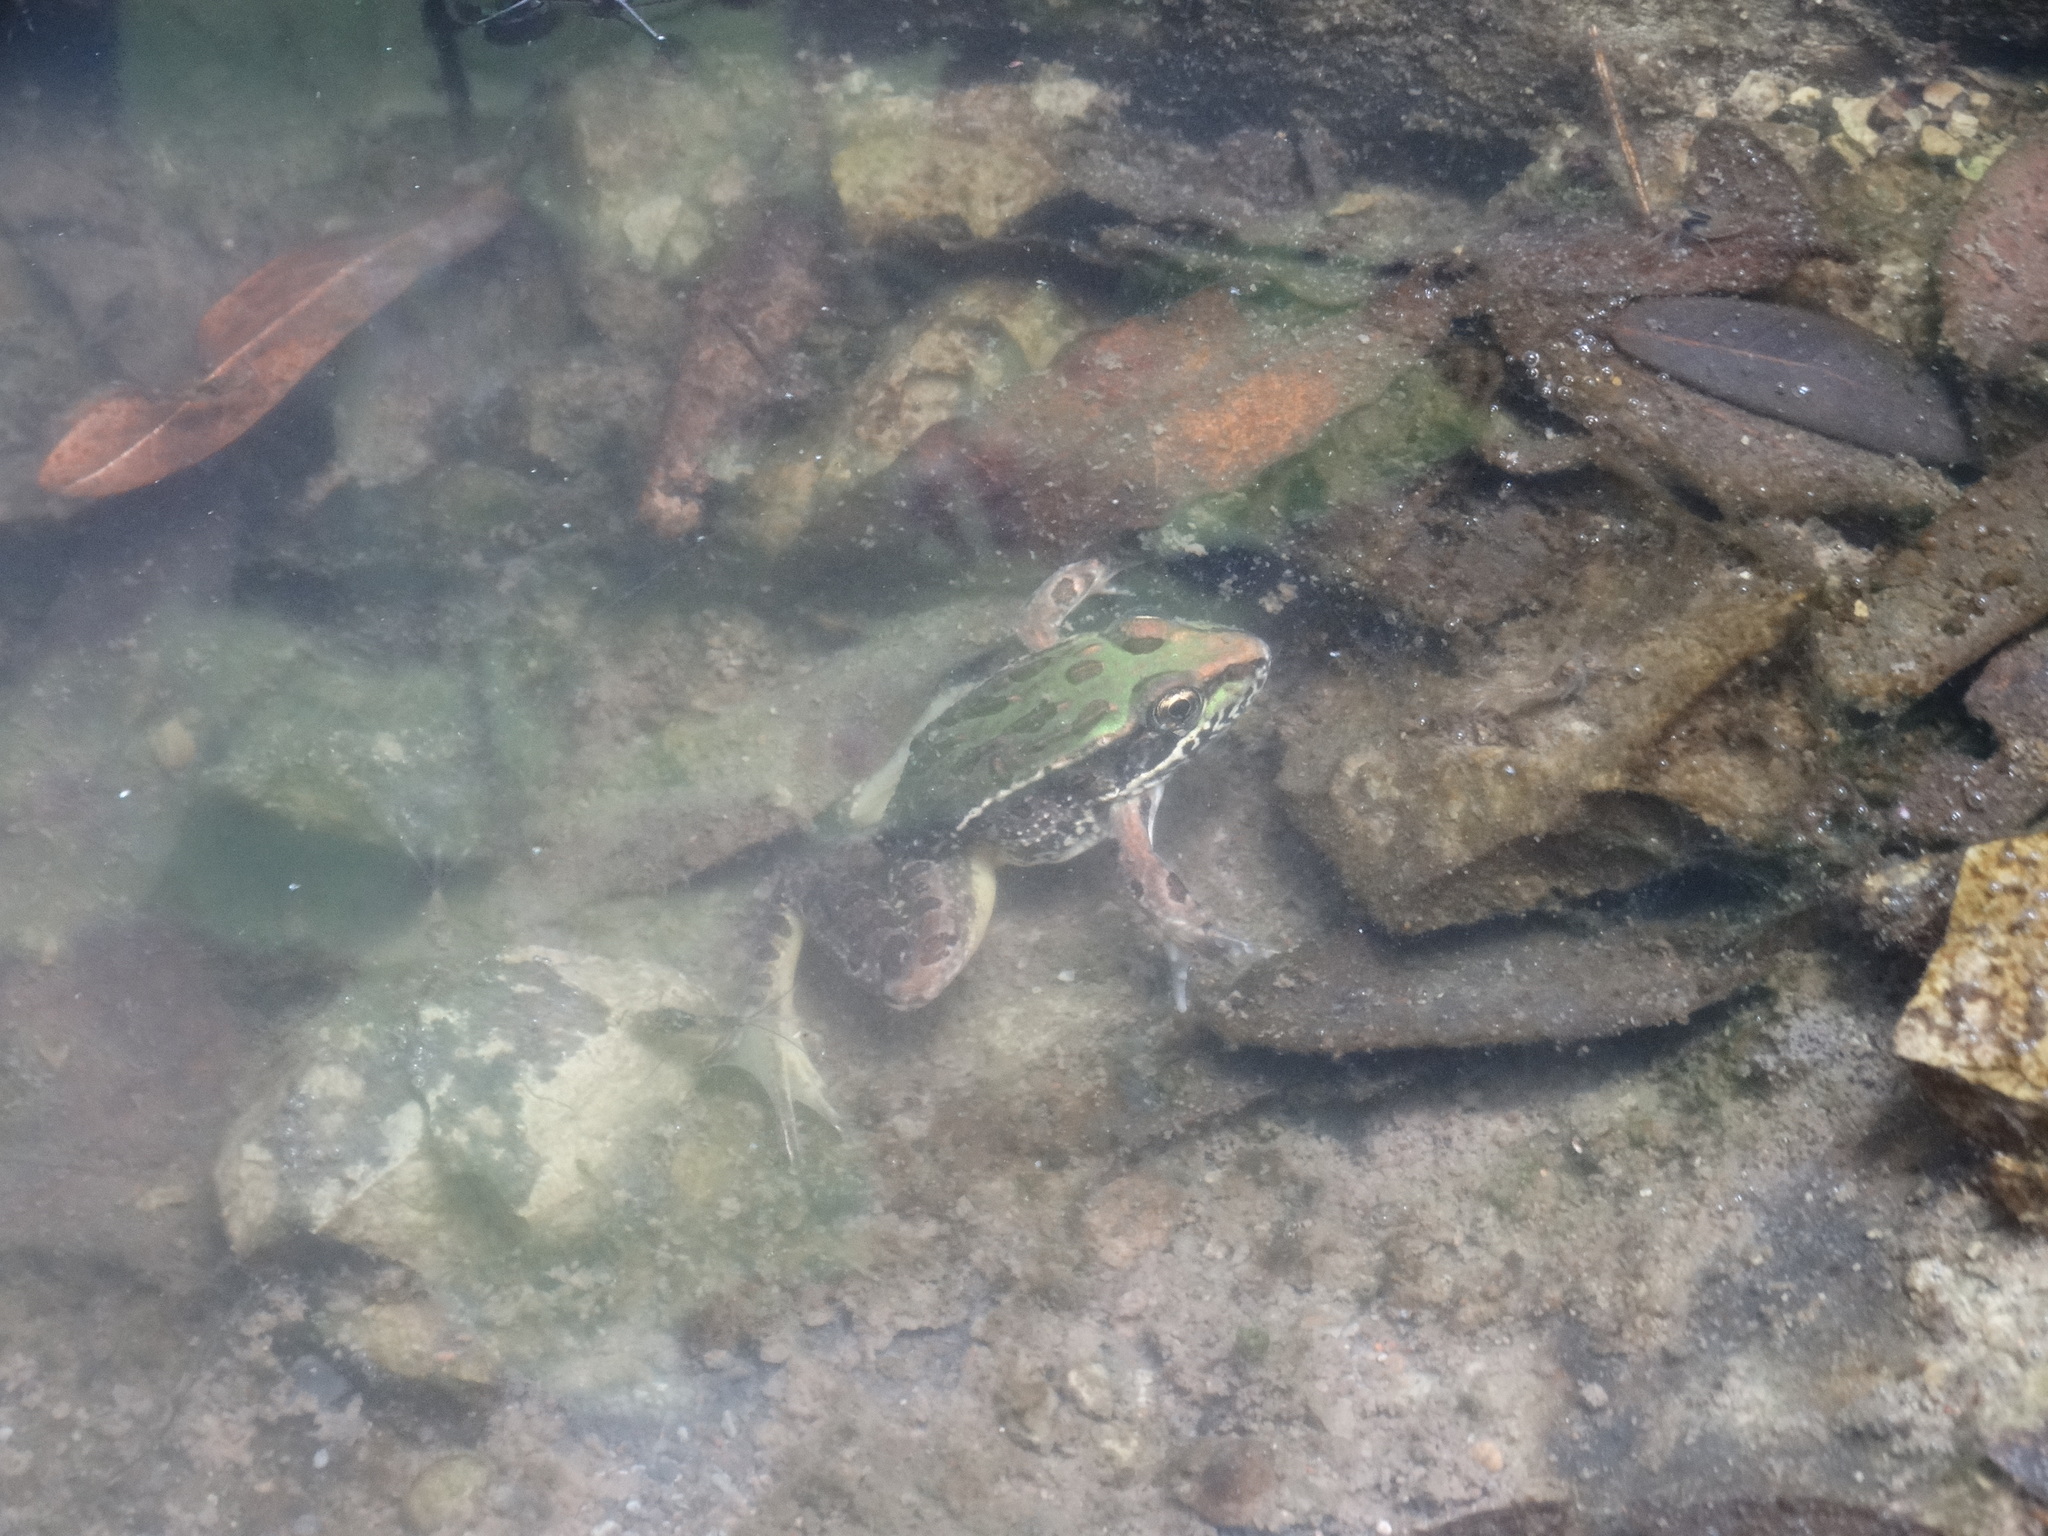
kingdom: Animalia
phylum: Chordata
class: Amphibia
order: Anura
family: Ranidae
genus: Lithobates
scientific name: Lithobates spectabilis
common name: Showy leopard frog
